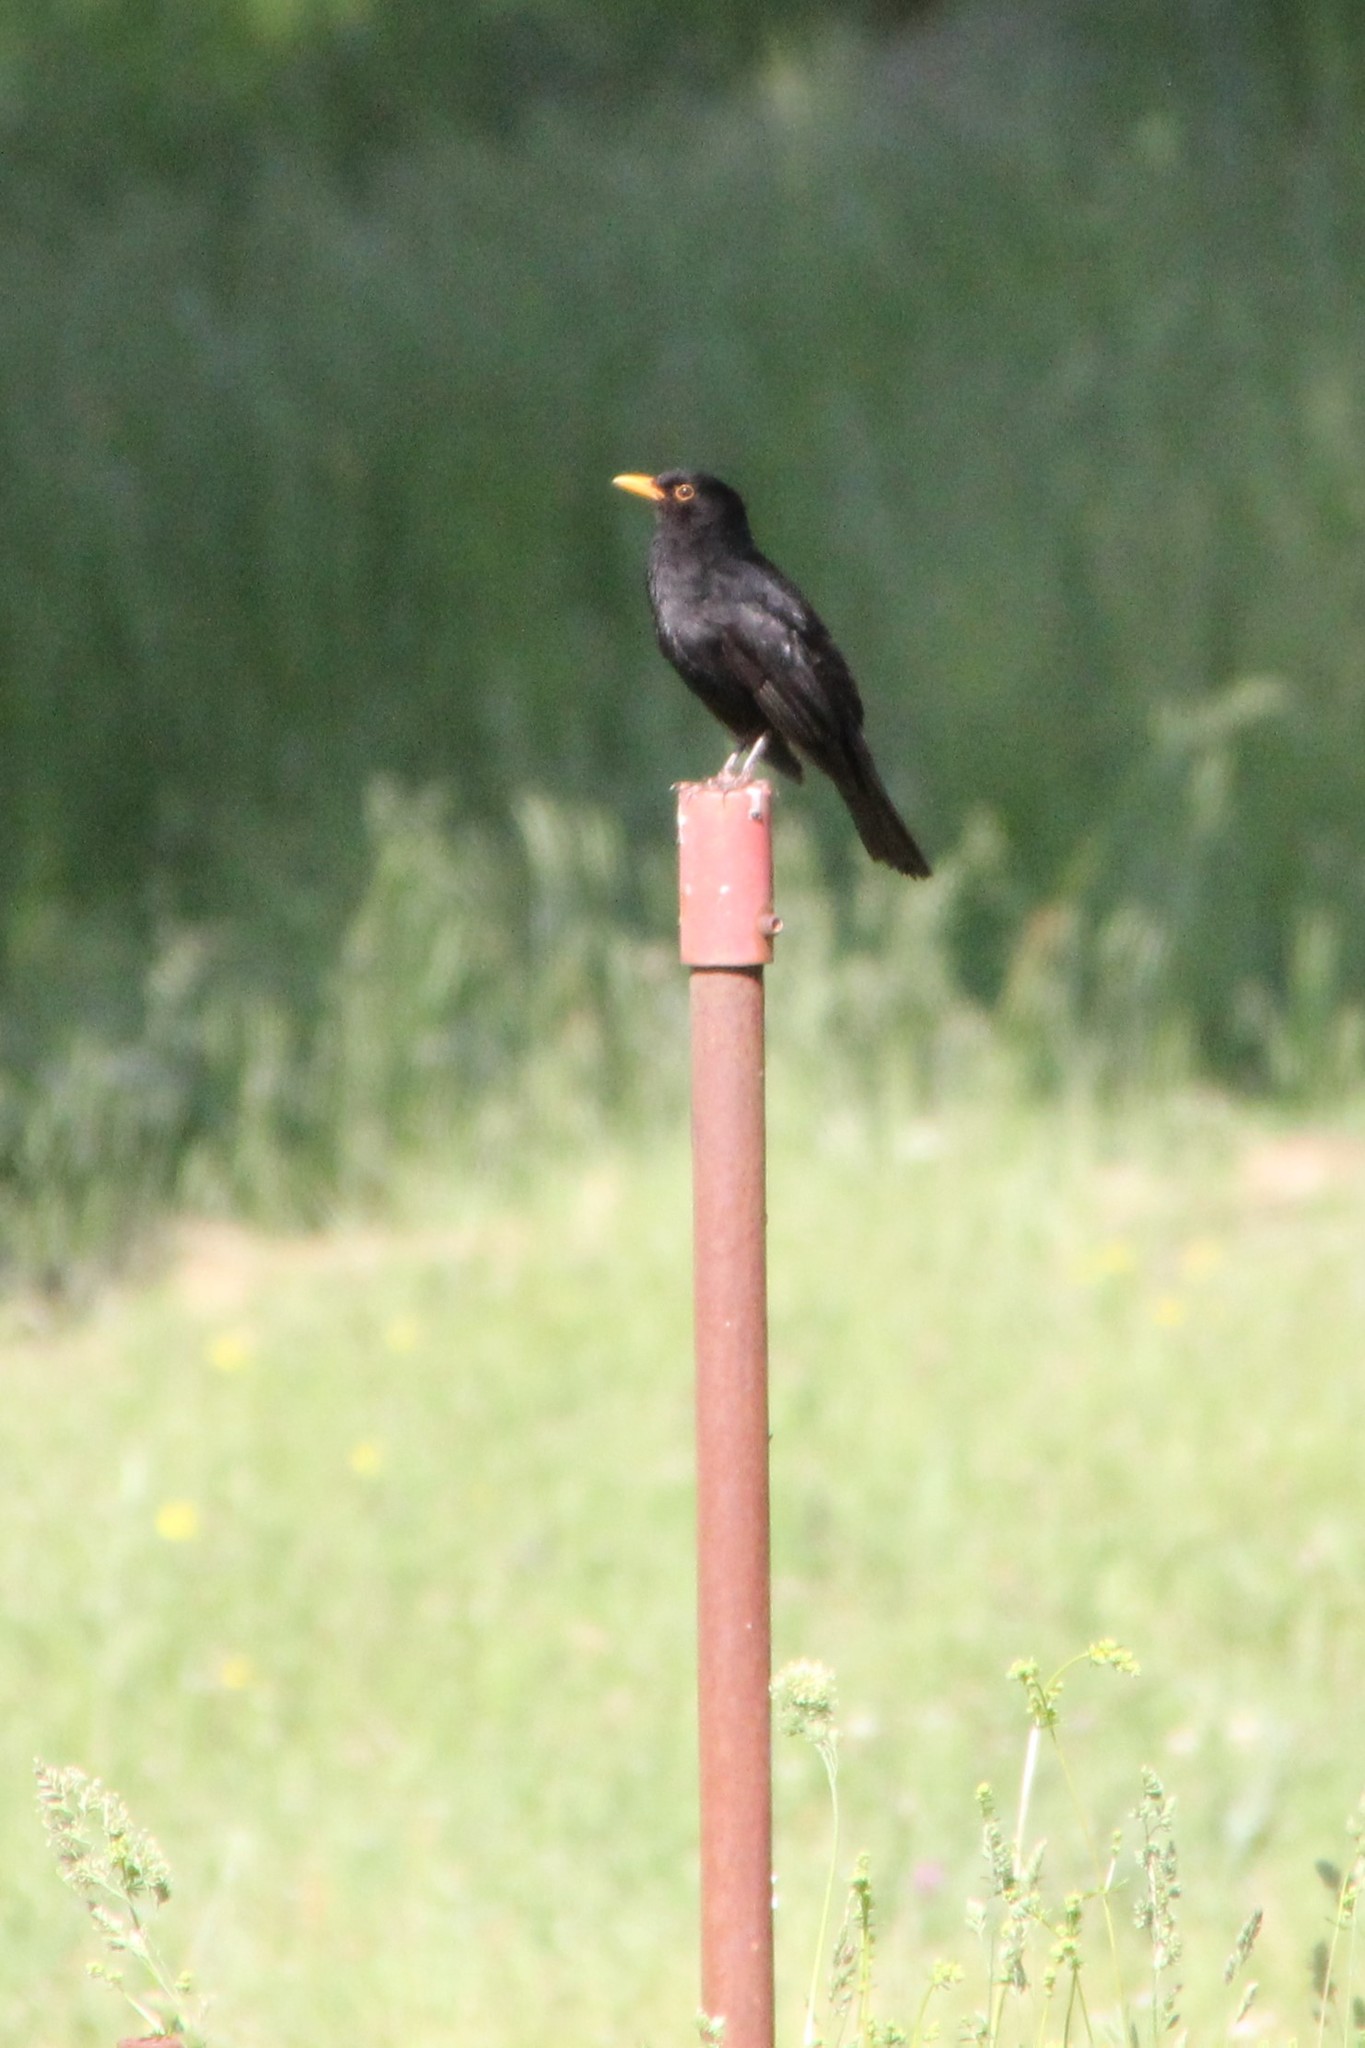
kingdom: Animalia
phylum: Chordata
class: Aves
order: Passeriformes
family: Turdidae
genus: Turdus
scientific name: Turdus merula
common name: Common blackbird
